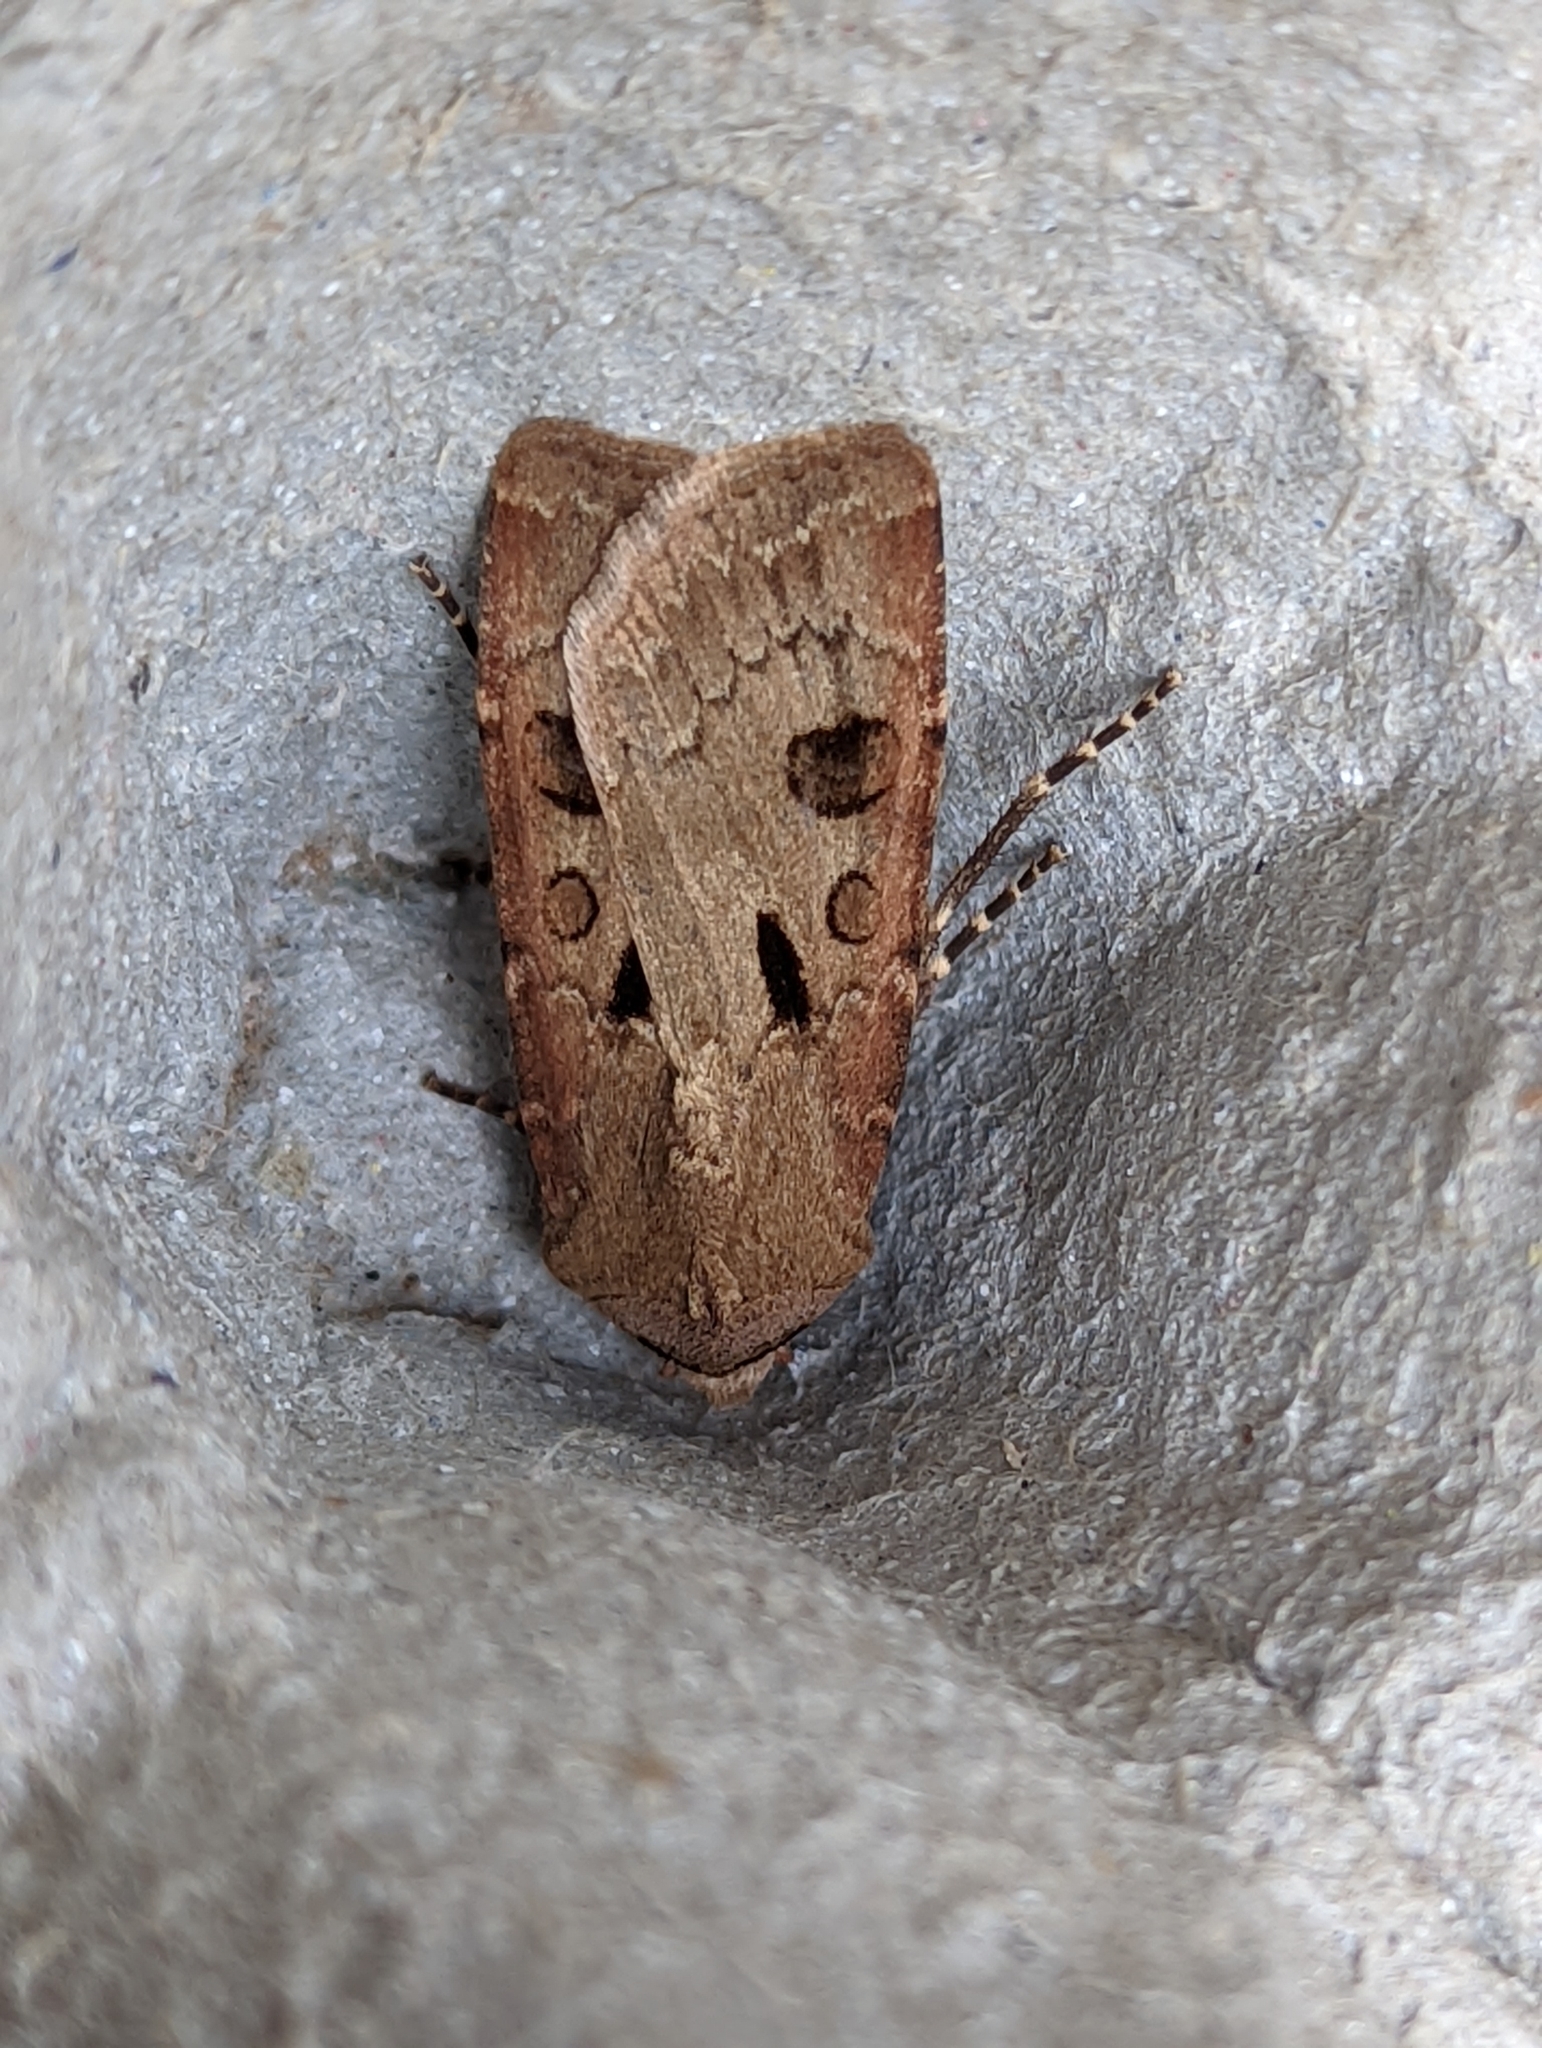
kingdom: Animalia
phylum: Arthropoda
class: Insecta
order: Lepidoptera
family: Noctuidae
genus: Agrotis
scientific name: Agrotis exclamationis
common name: Heart and dart
